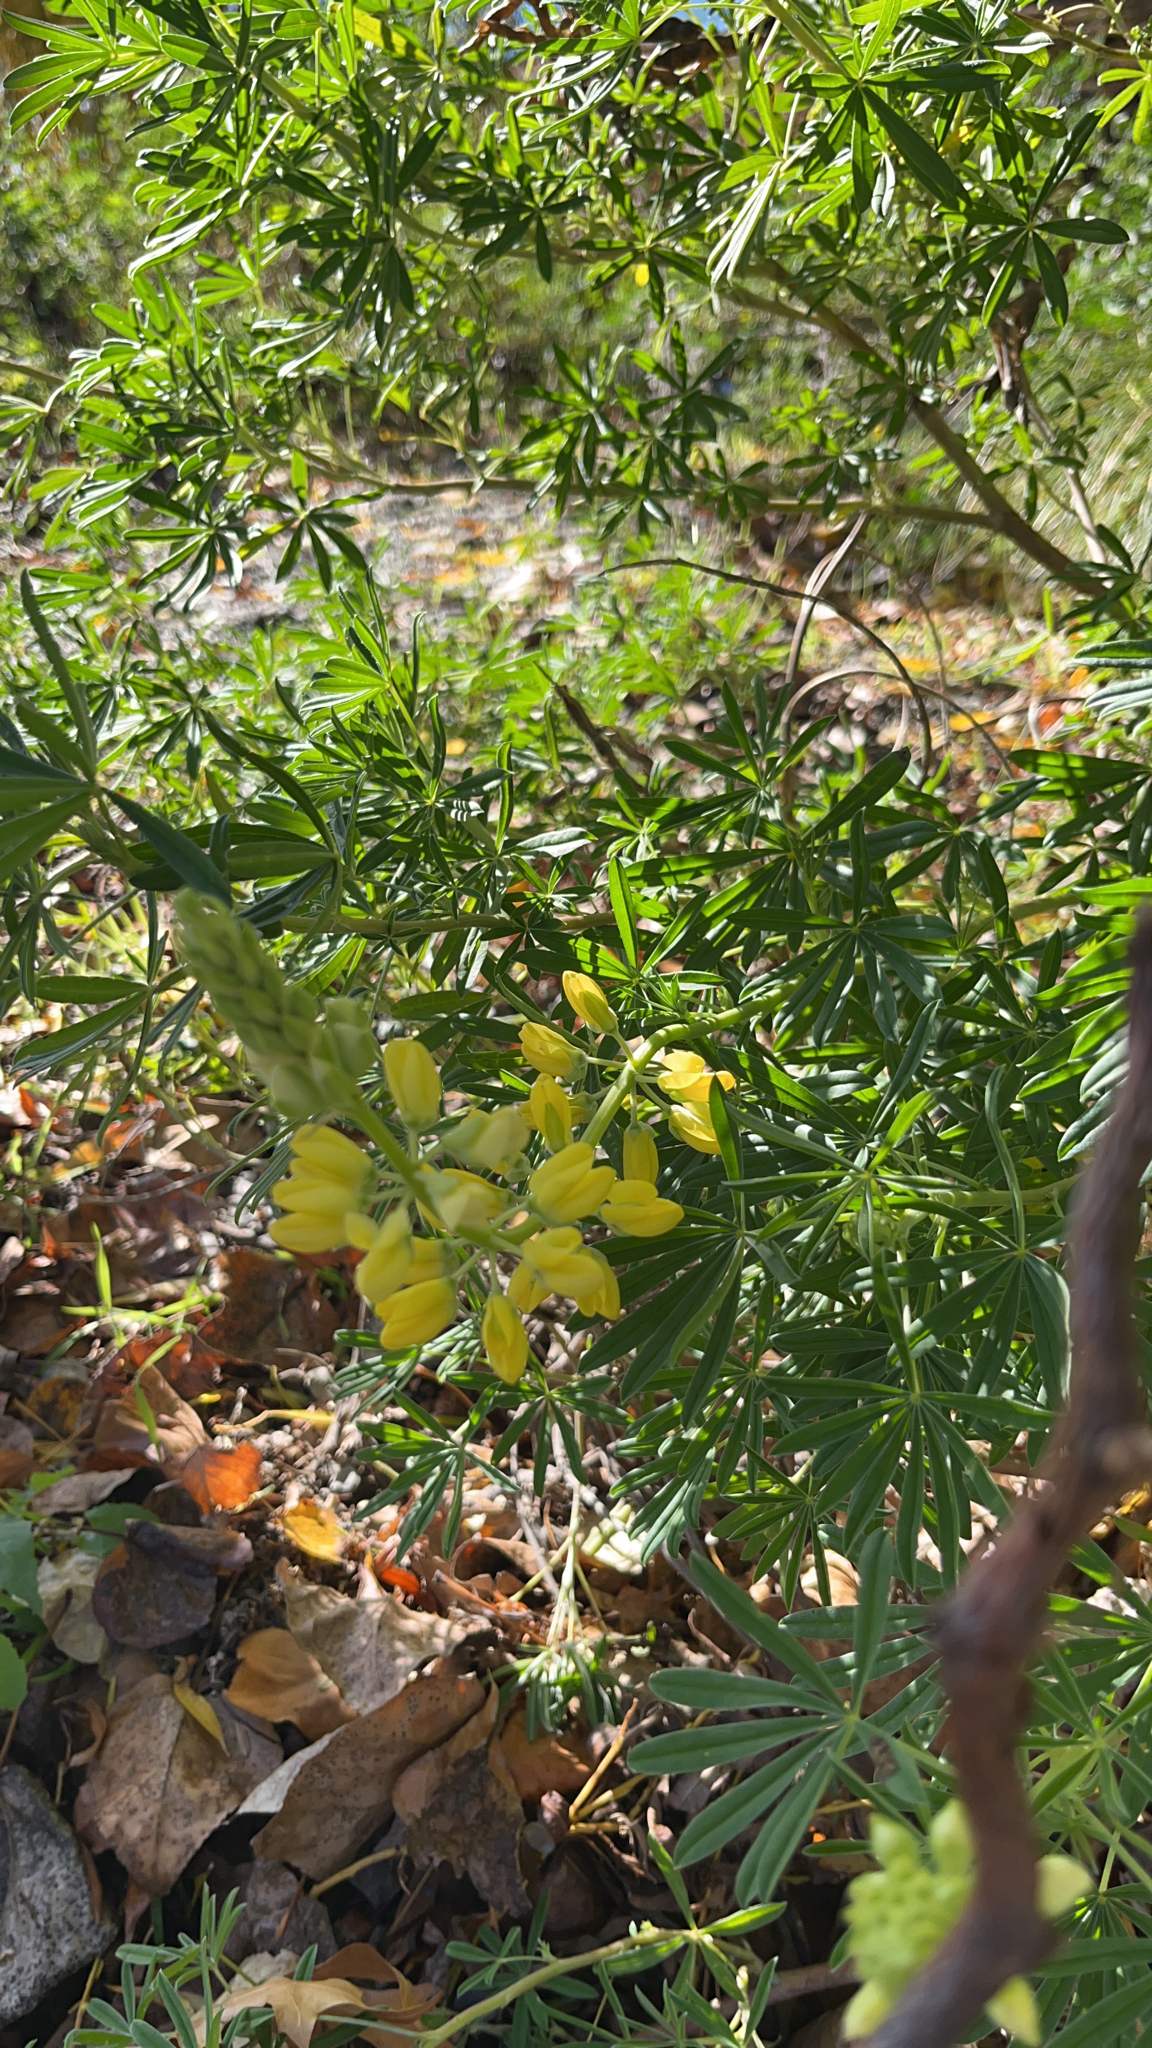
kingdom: Plantae
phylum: Tracheophyta
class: Magnoliopsida
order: Fabales
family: Fabaceae
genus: Lupinus
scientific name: Lupinus arboreus
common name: Yellow bush lupine
